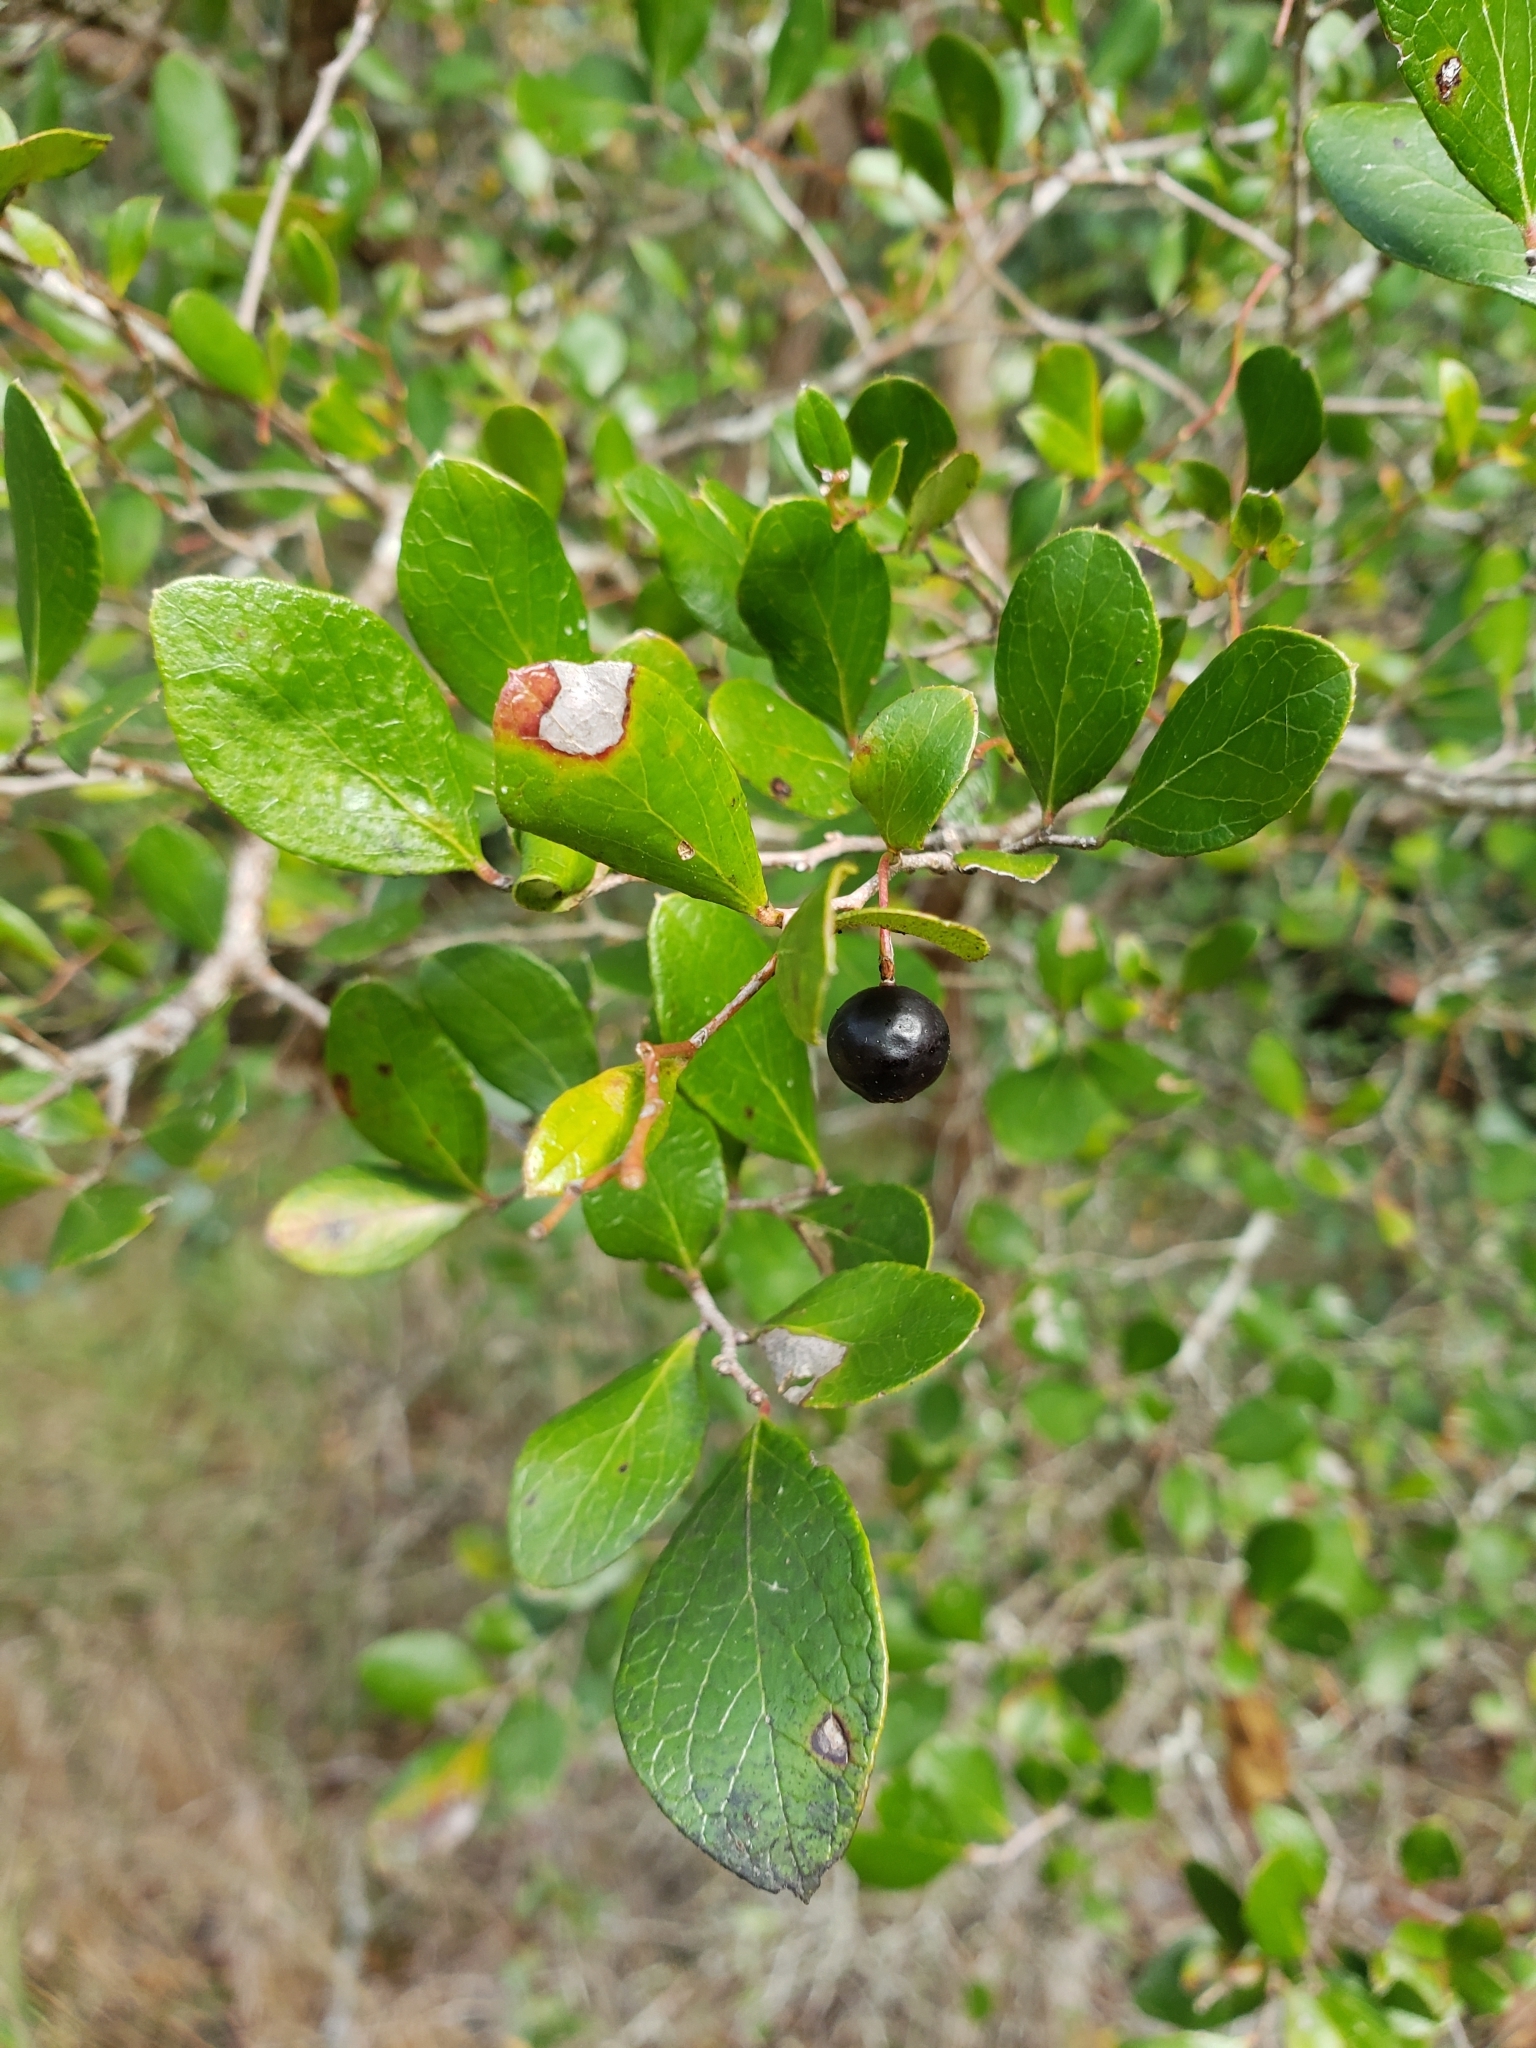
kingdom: Plantae
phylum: Tracheophyta
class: Magnoliopsida
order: Ericales
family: Ericaceae
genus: Vaccinium
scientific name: Vaccinium arboreum
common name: Farkleberry
